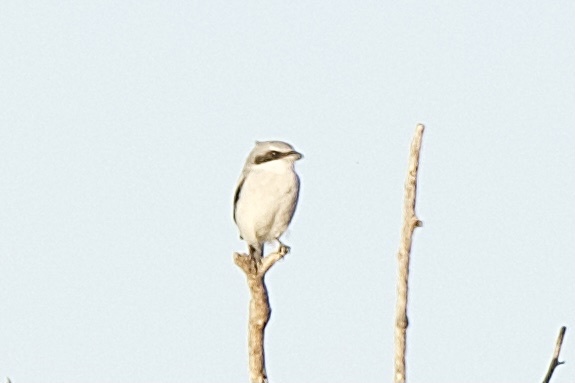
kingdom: Animalia
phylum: Chordata
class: Aves
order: Passeriformes
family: Laniidae
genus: Lanius
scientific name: Lanius ludovicianus
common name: Loggerhead shrike
